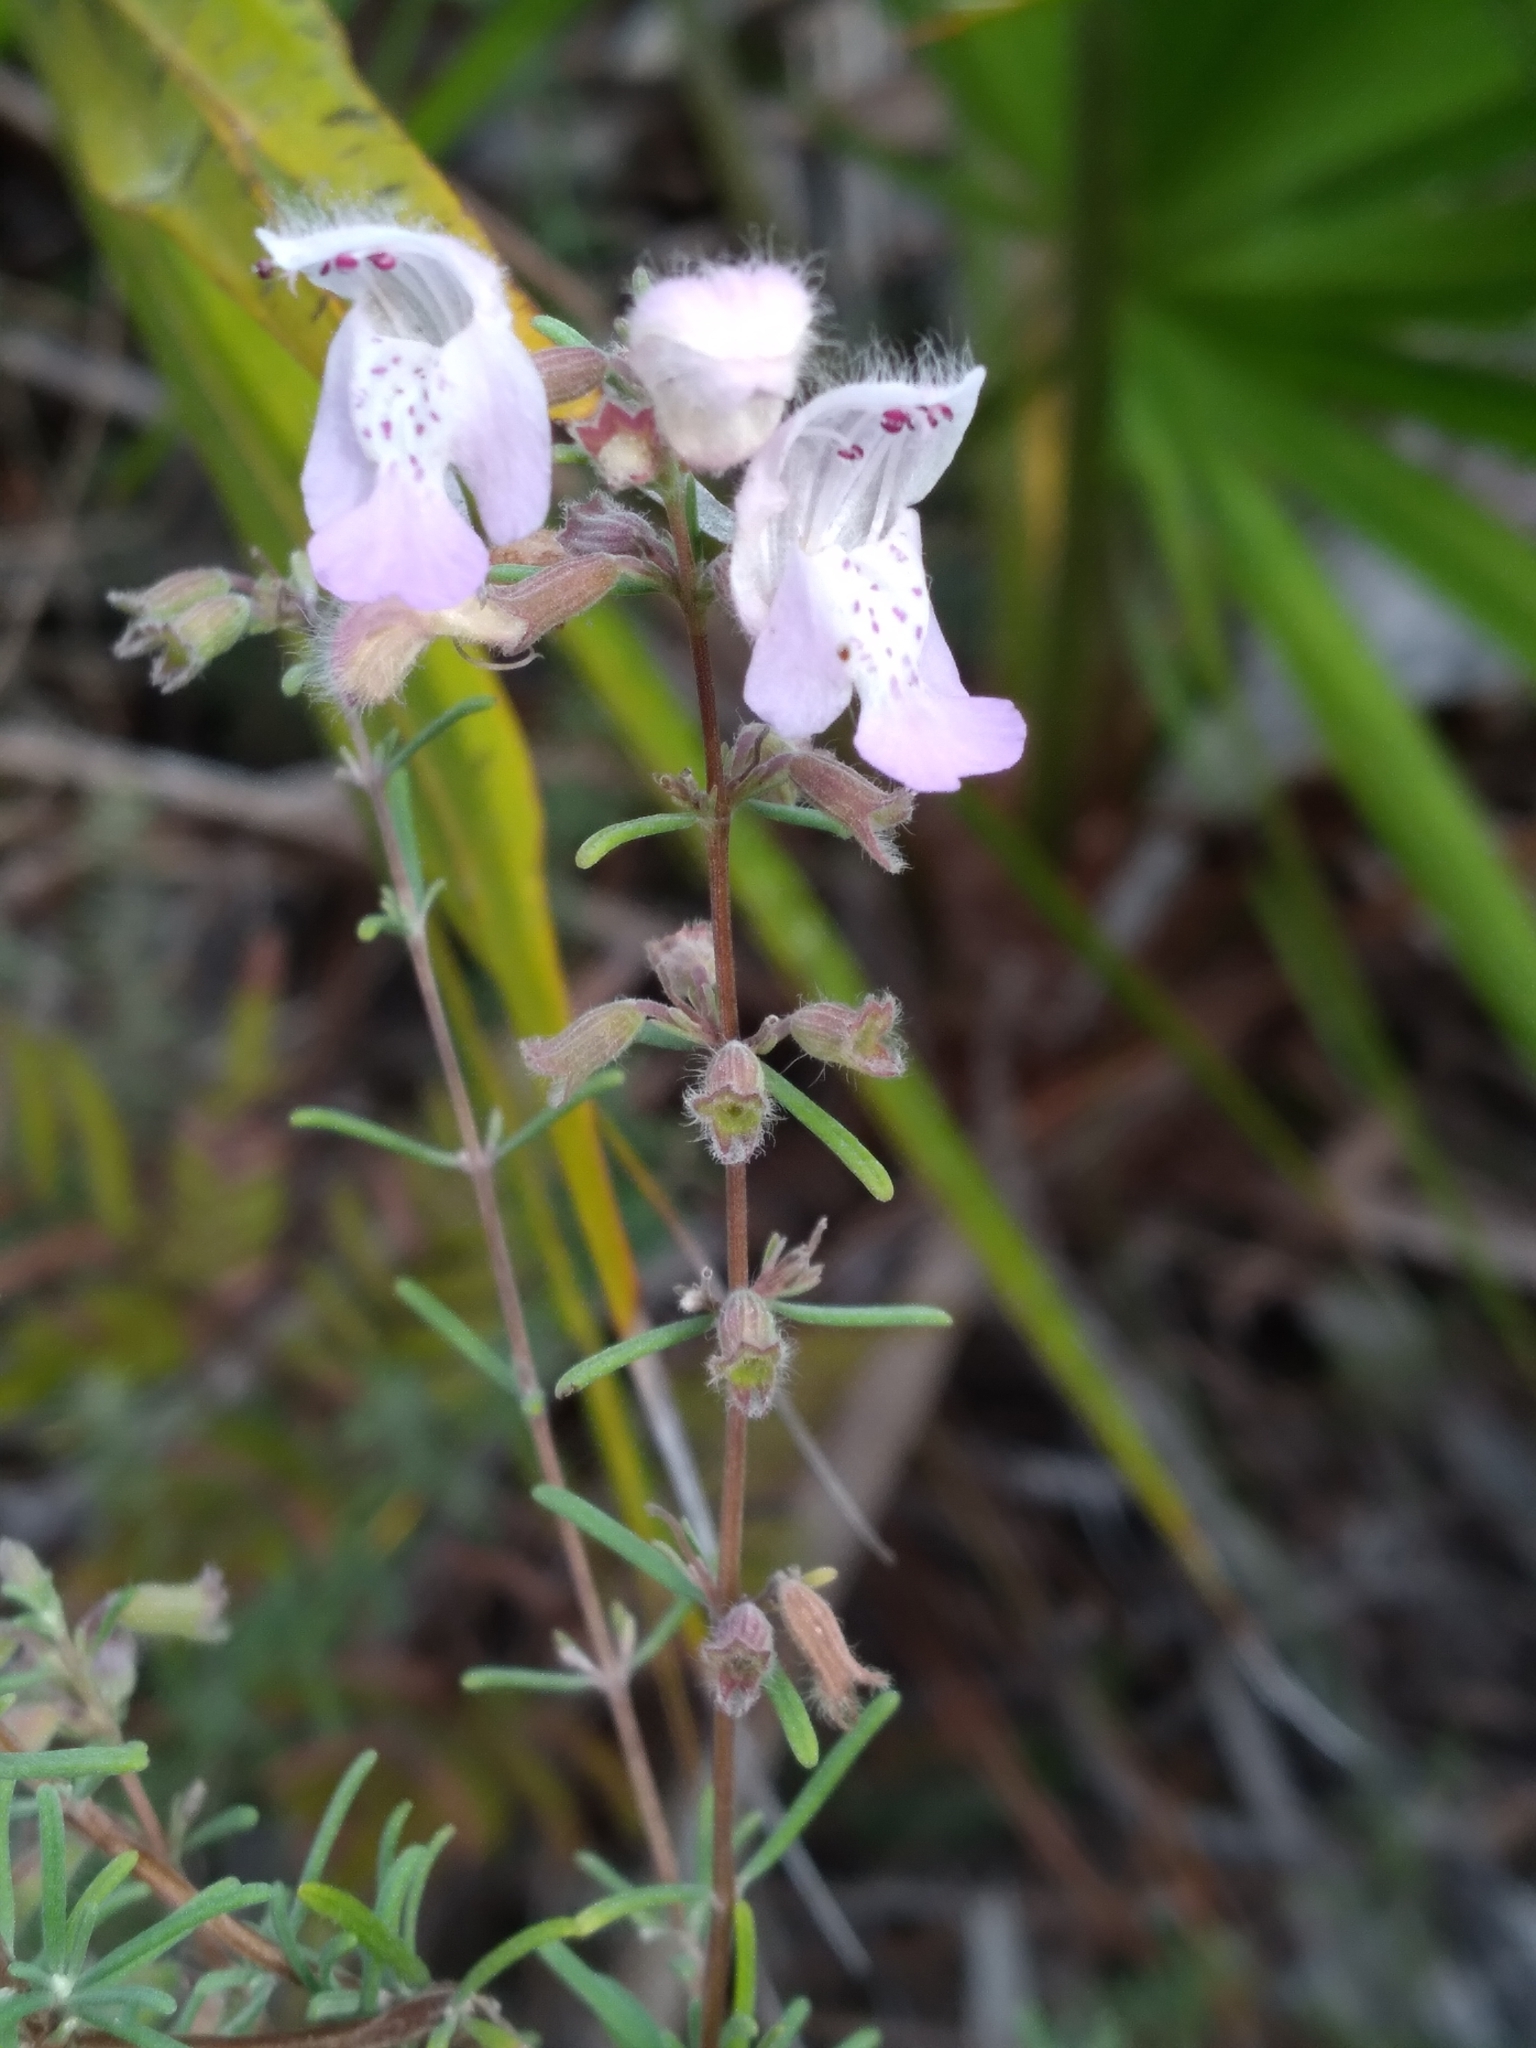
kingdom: Plantae
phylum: Tracheophyta
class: Magnoliopsida
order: Lamiales
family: Lamiaceae
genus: Conradina
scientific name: Conradina canescens
